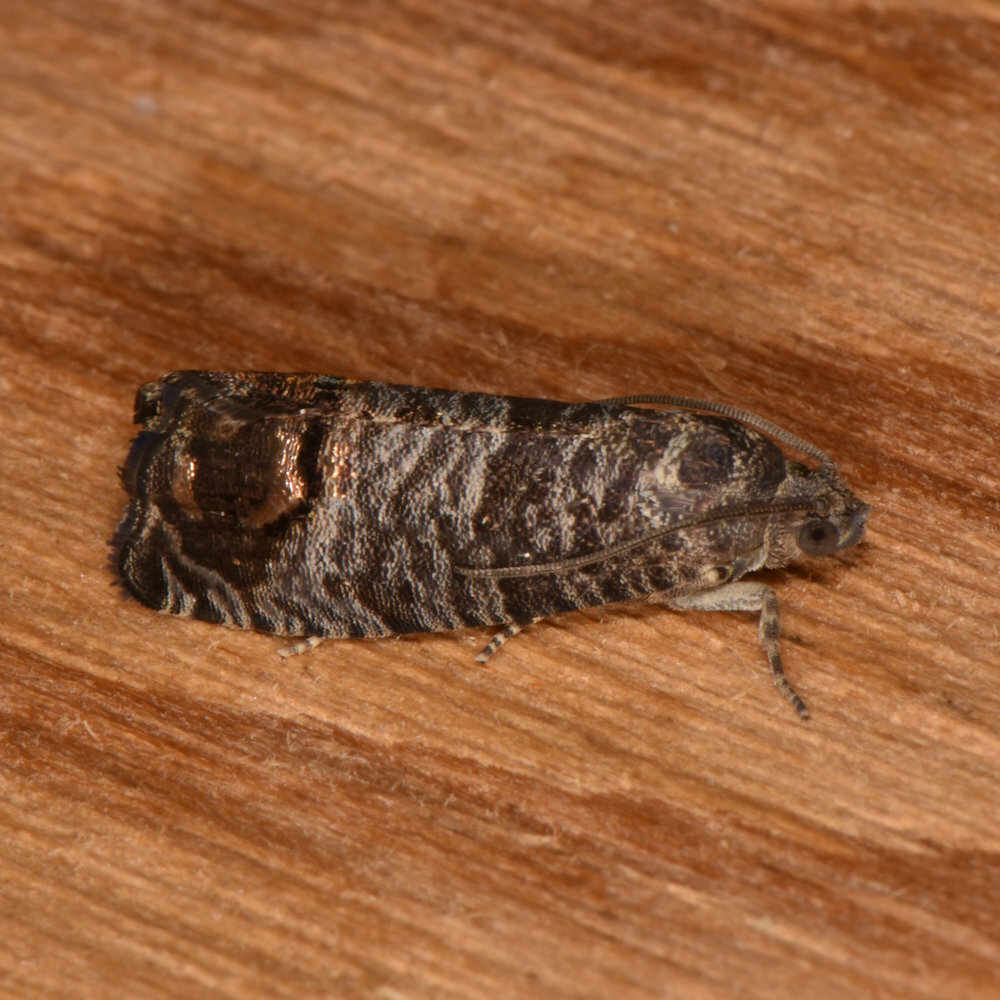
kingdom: Animalia
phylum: Arthropoda
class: Insecta
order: Lepidoptera
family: Tortricidae
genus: Cydia
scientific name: Cydia pomonella
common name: Codling moth
